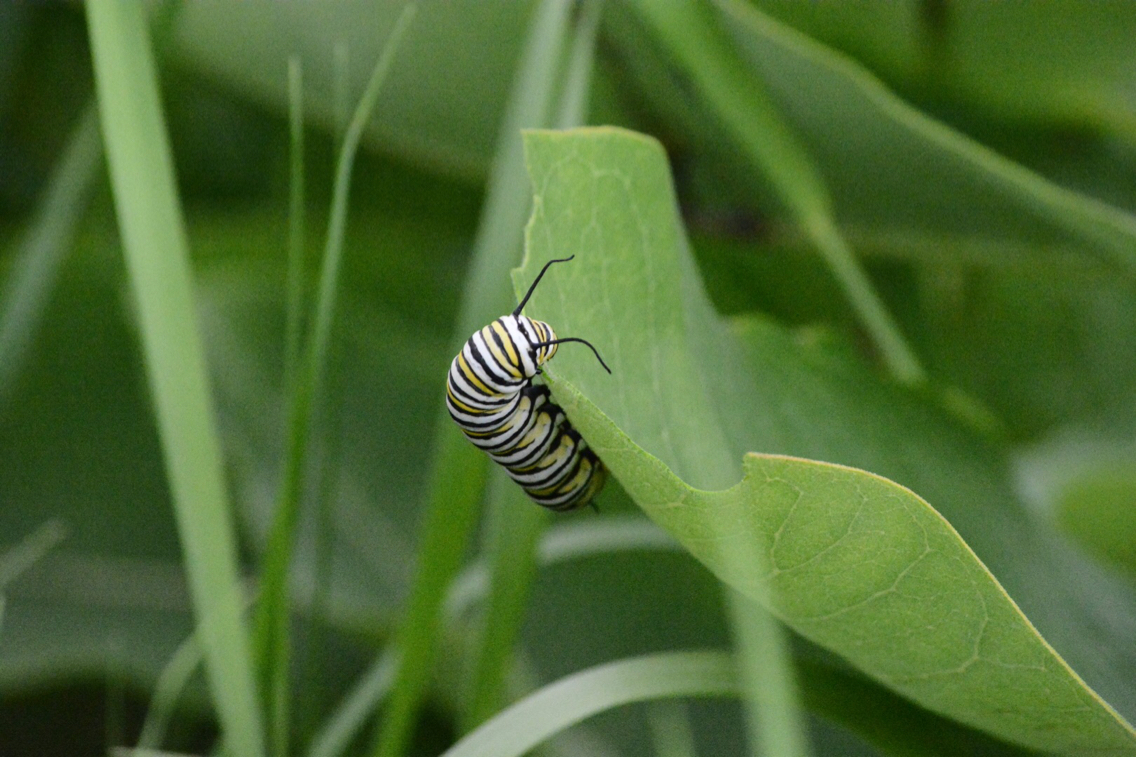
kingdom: Animalia
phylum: Arthropoda
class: Insecta
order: Lepidoptera
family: Nymphalidae
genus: Danaus
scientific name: Danaus plexippus
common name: Monarch
